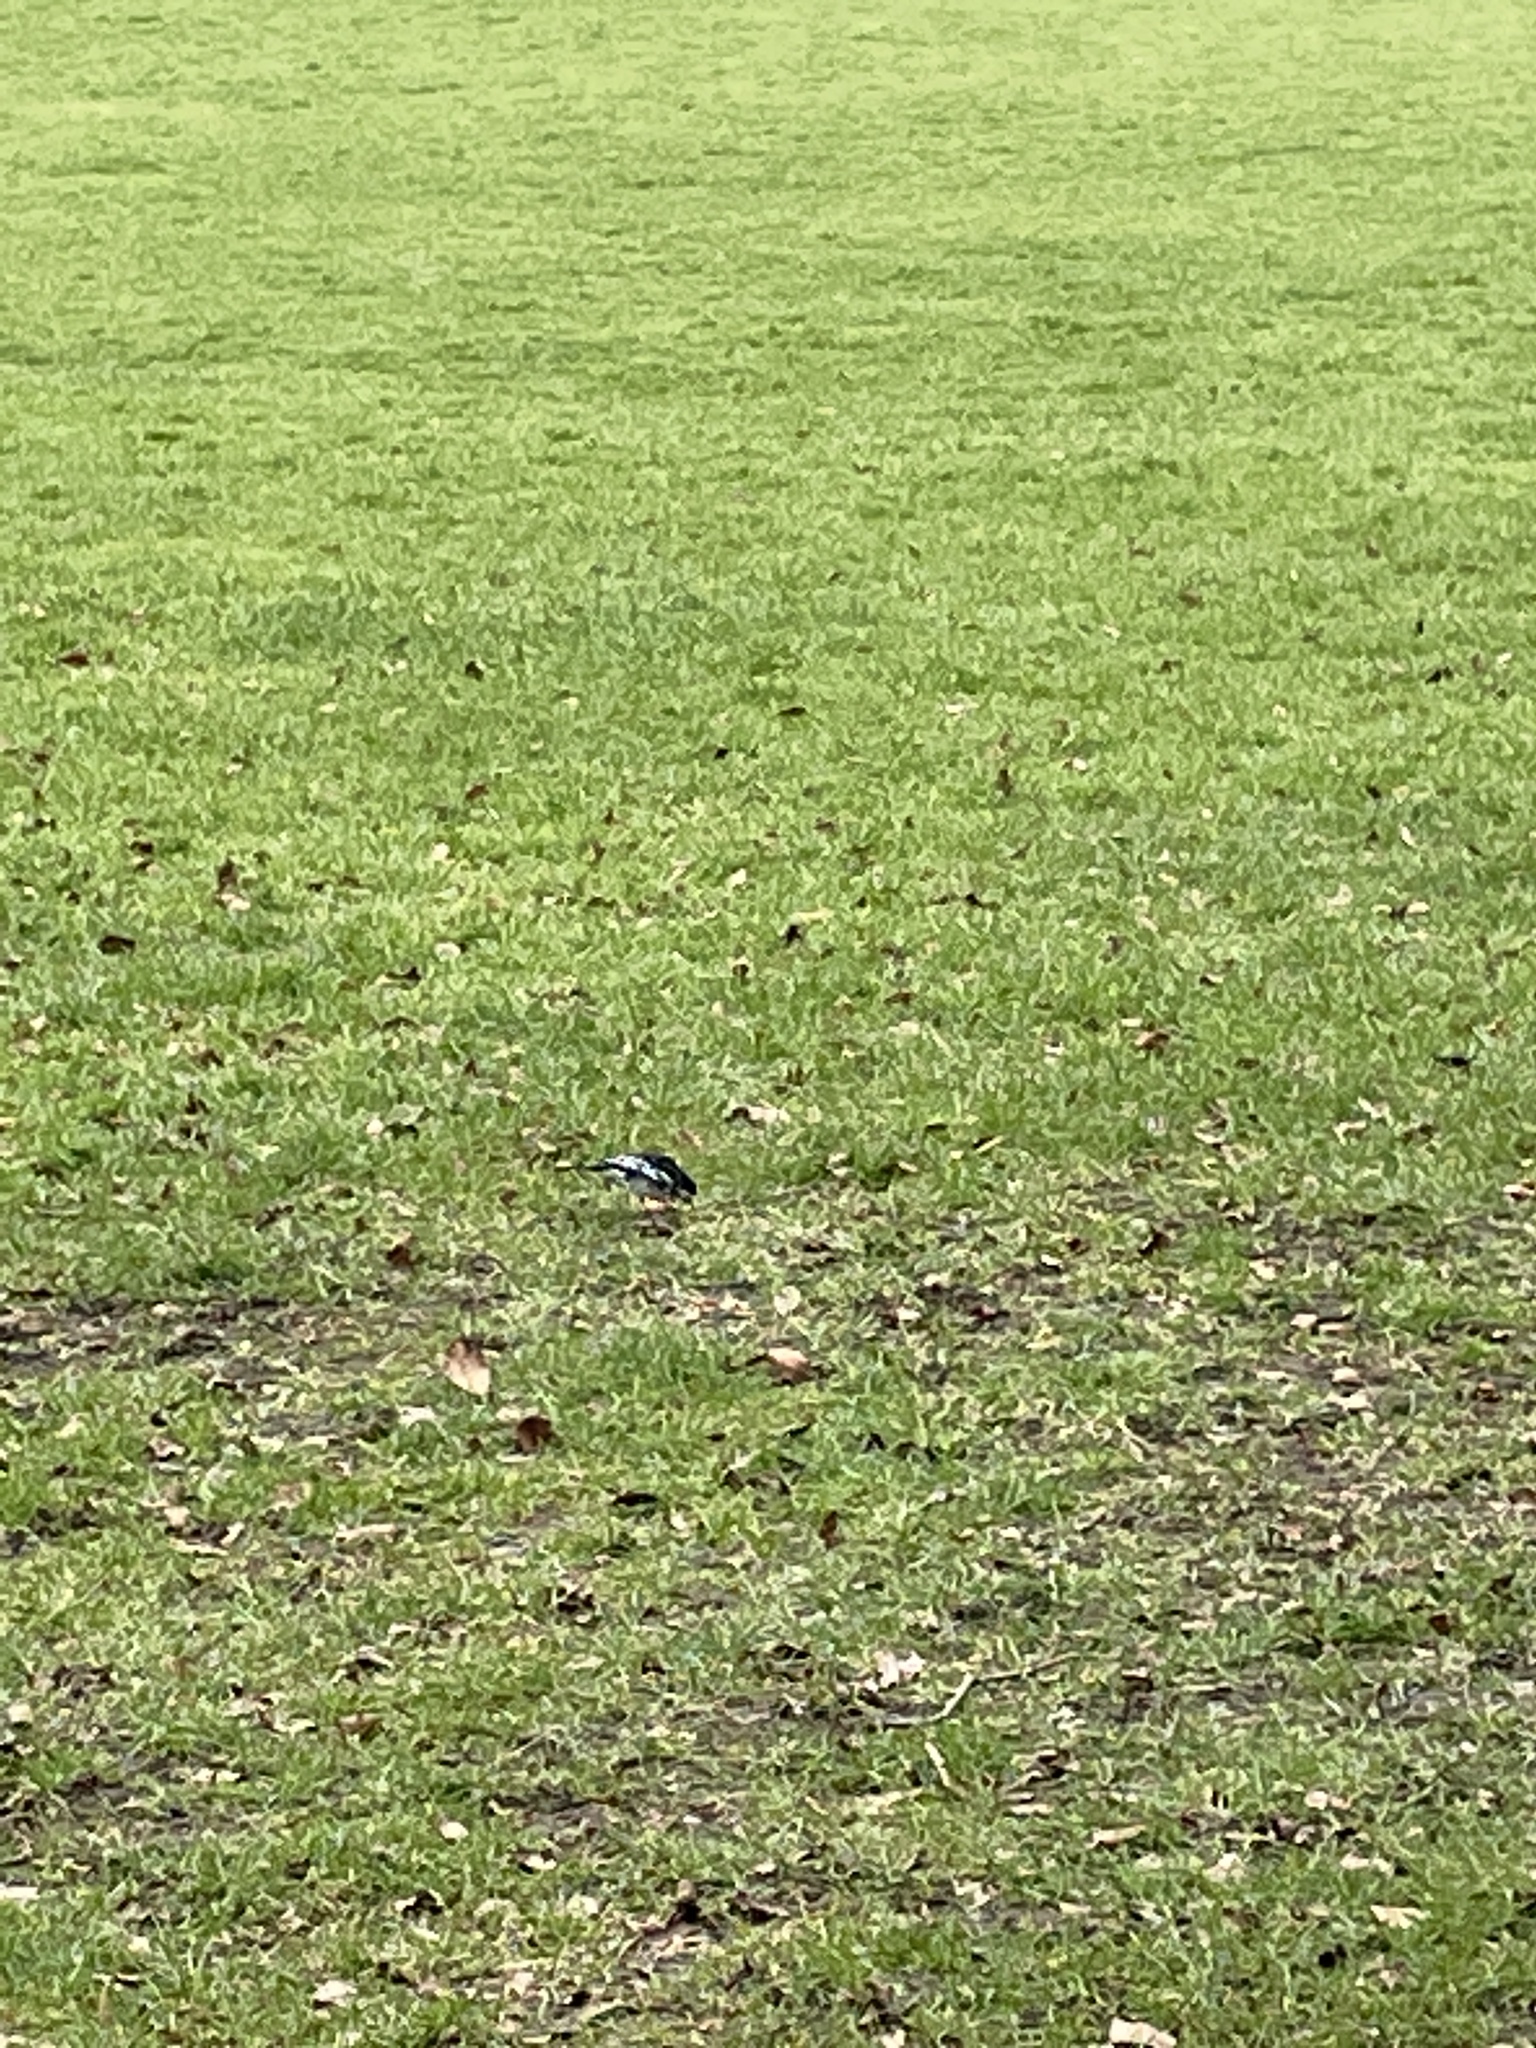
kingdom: Animalia
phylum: Chordata
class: Aves
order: Passeriformes
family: Motacillidae
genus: Motacilla
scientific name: Motacilla alba
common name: White wagtail
